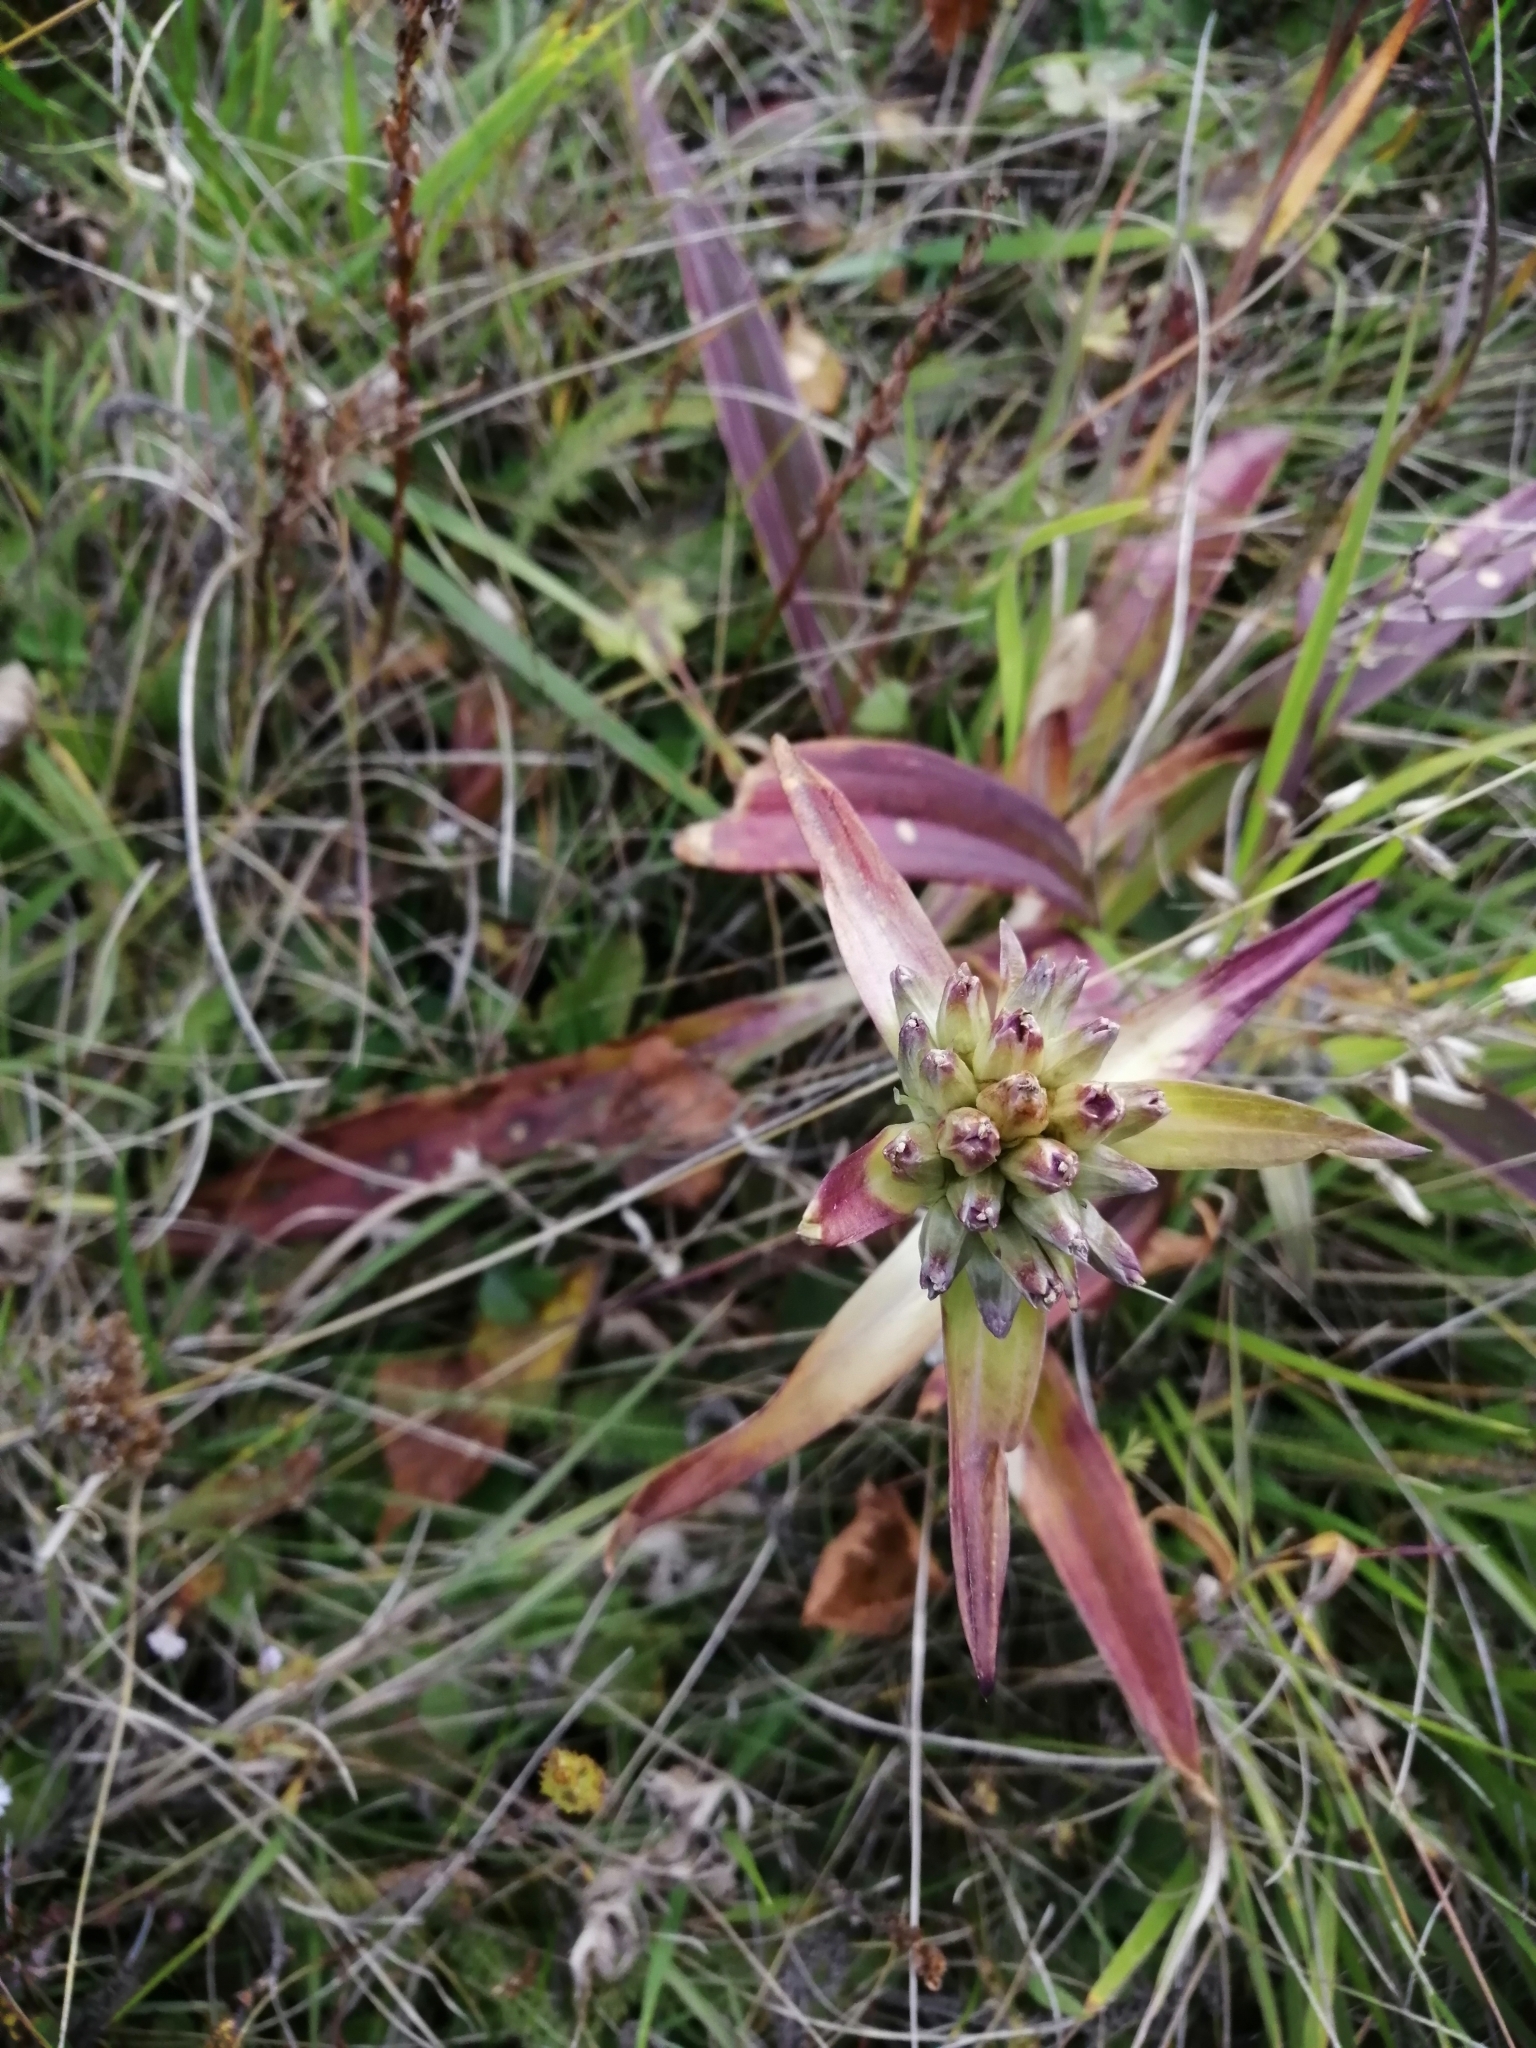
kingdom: Plantae
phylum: Tracheophyta
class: Magnoliopsida
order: Gentianales
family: Gentianaceae
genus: Gentiana
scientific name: Gentiana macrophylla
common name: Large-leaf gentian
